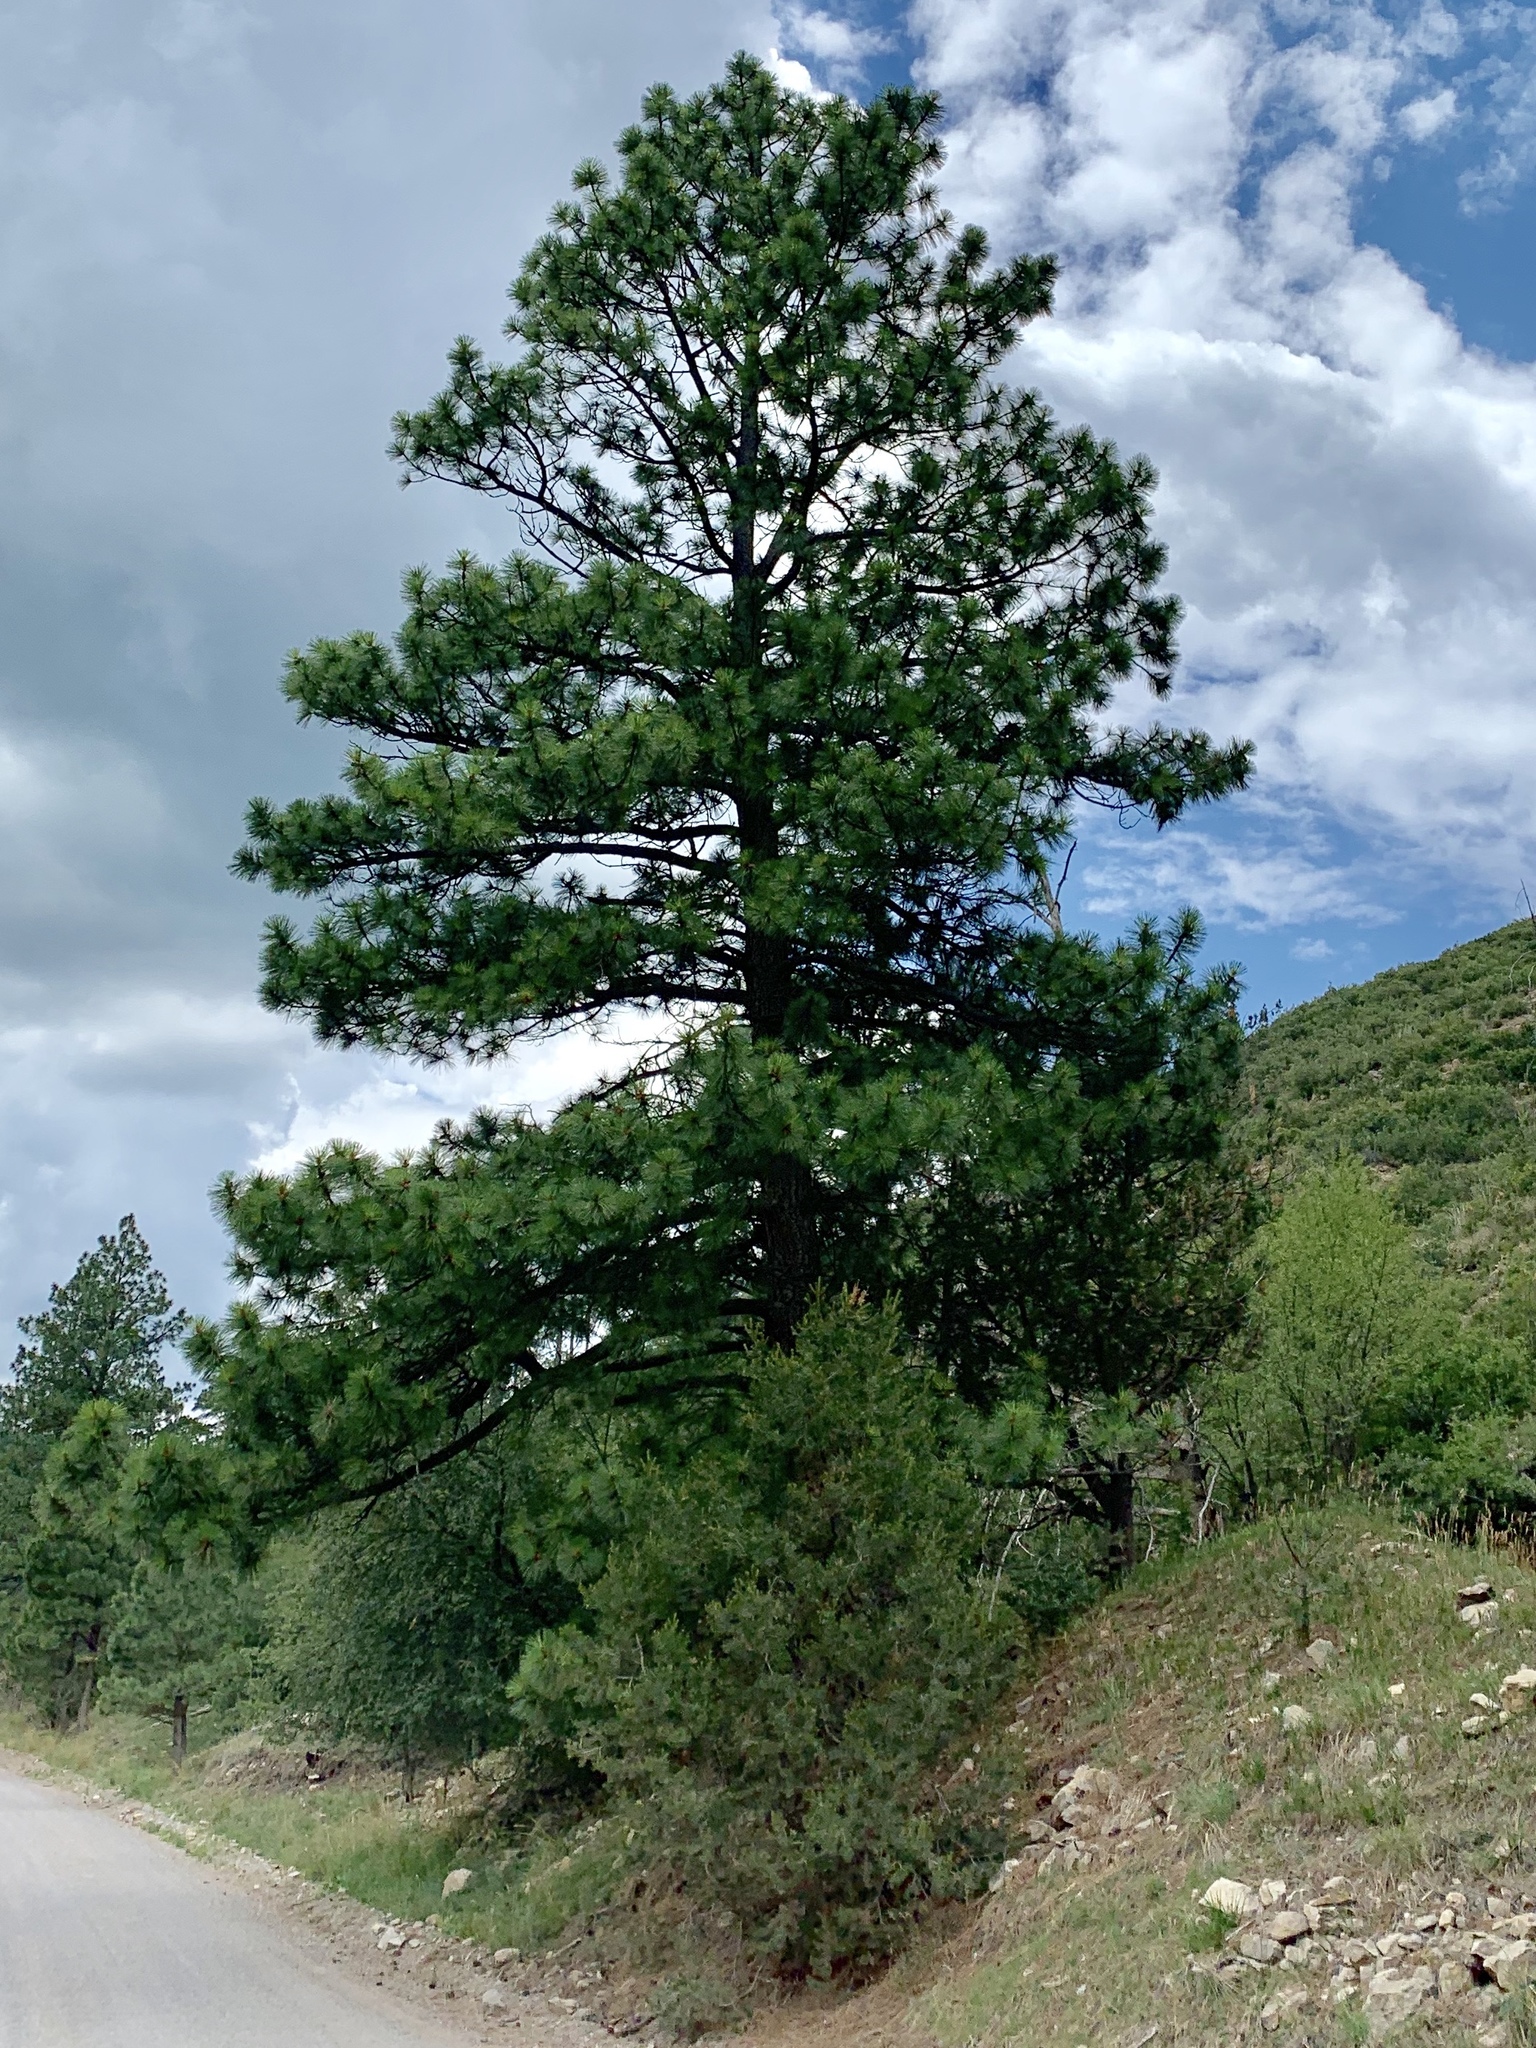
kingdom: Plantae
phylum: Tracheophyta
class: Pinopsida
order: Pinales
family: Pinaceae
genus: Pinus
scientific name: Pinus ponderosa
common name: Western yellow-pine
